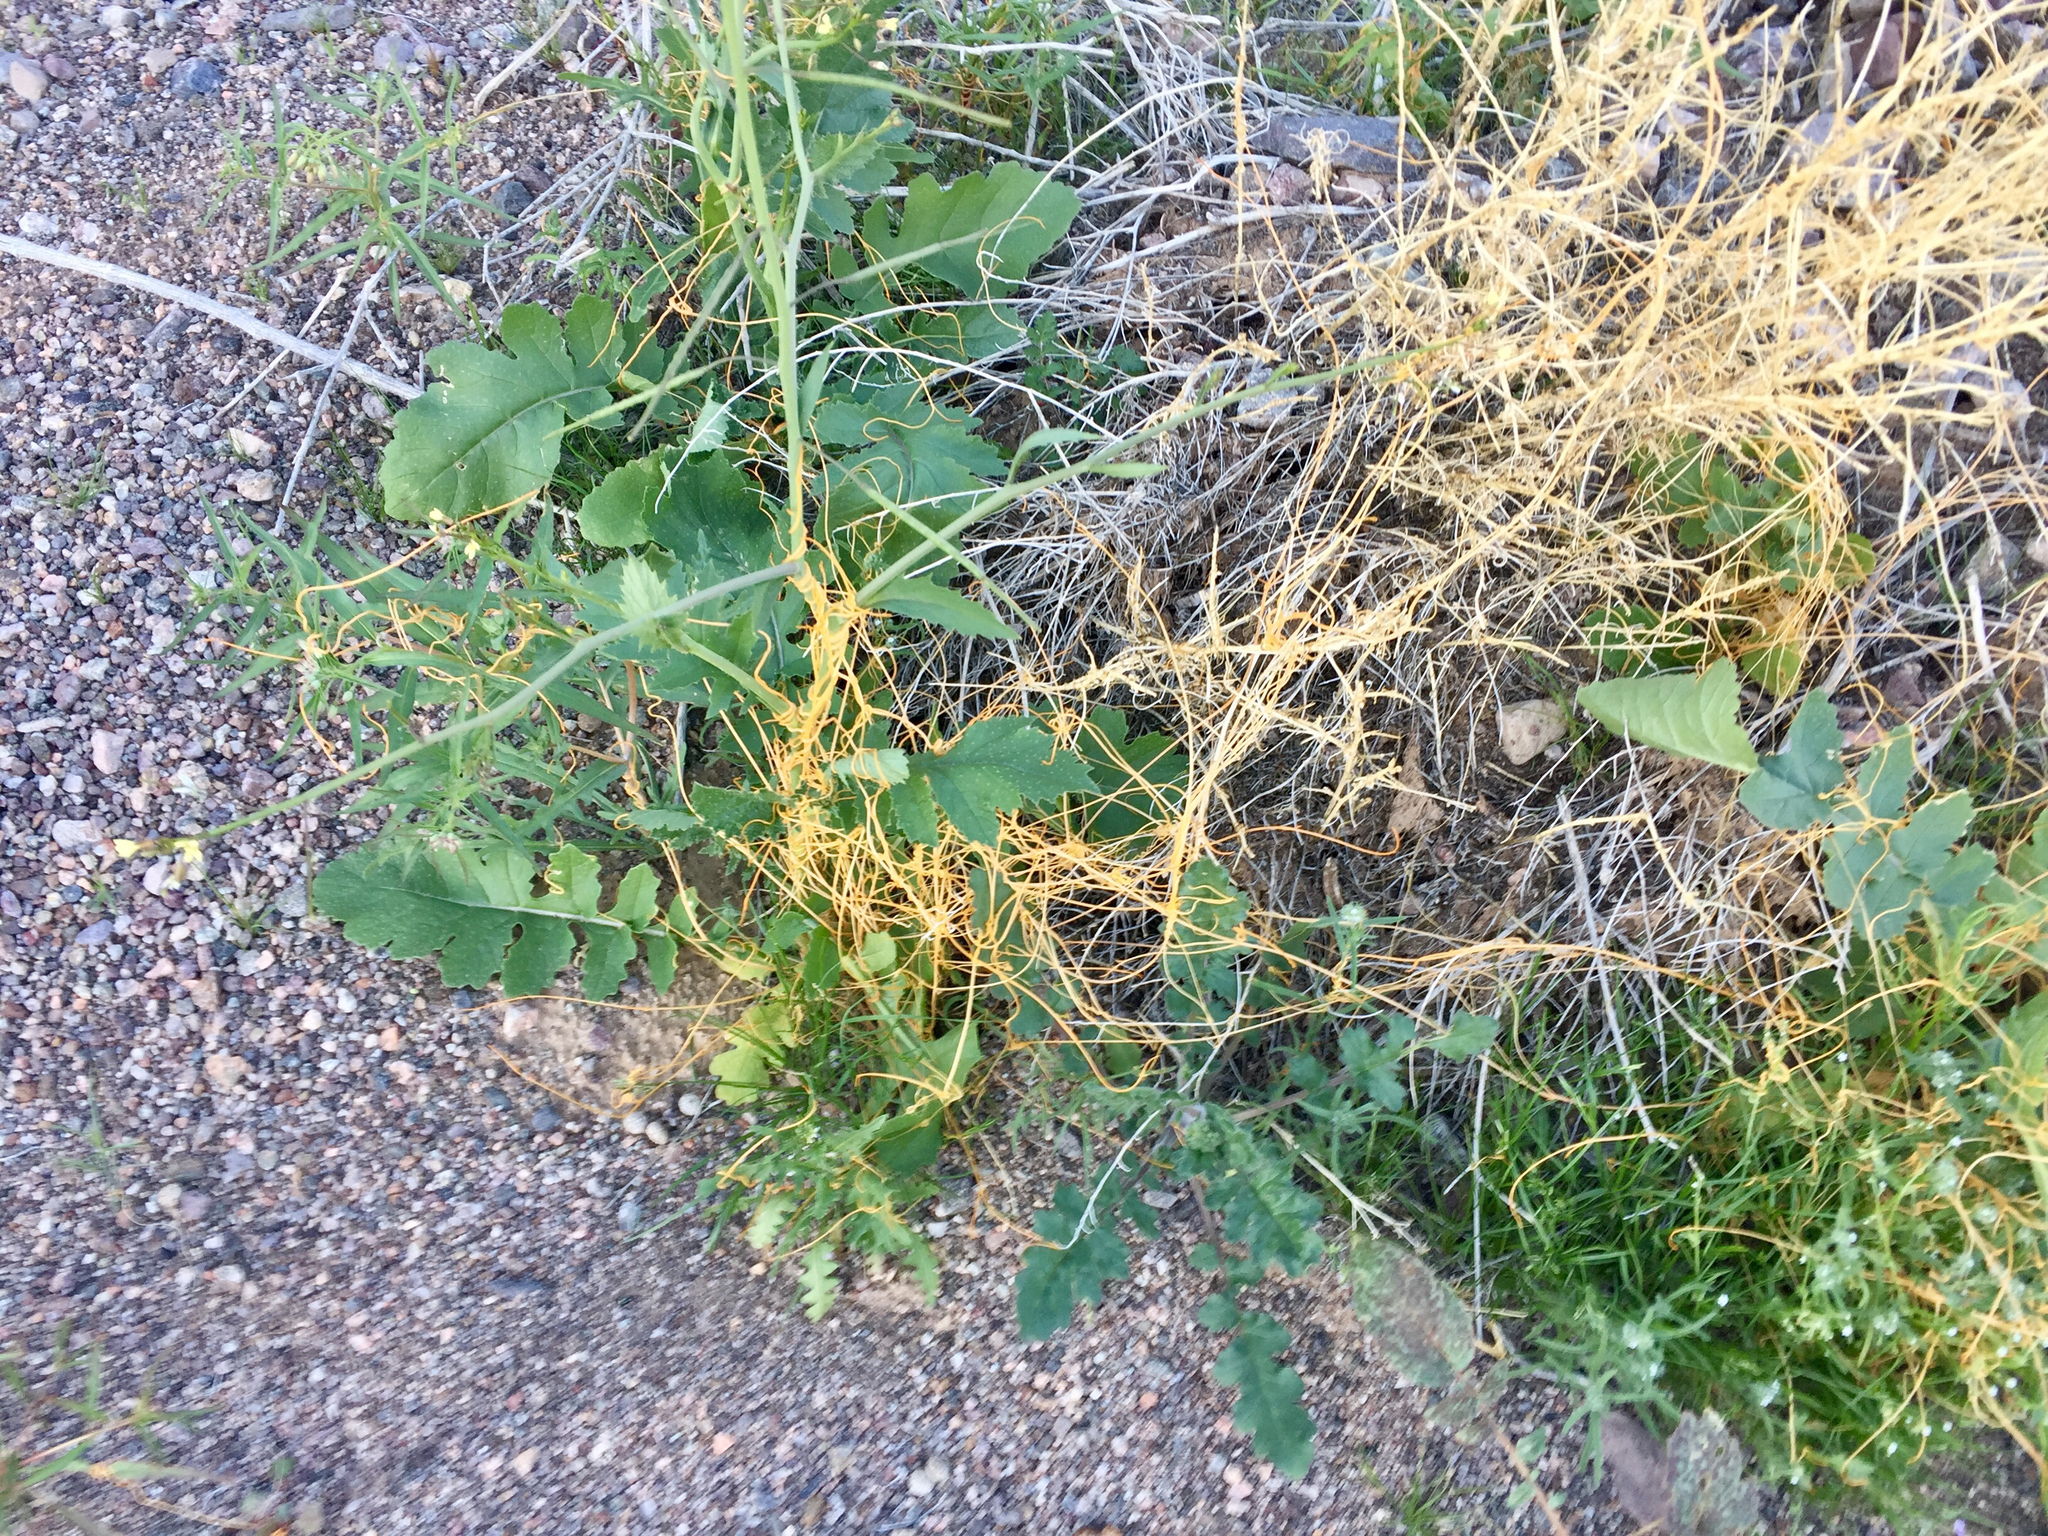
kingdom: Plantae
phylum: Tracheophyta
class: Magnoliopsida
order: Solanales
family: Convolvulaceae
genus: Cuscuta
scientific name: Cuscuta denticulata
